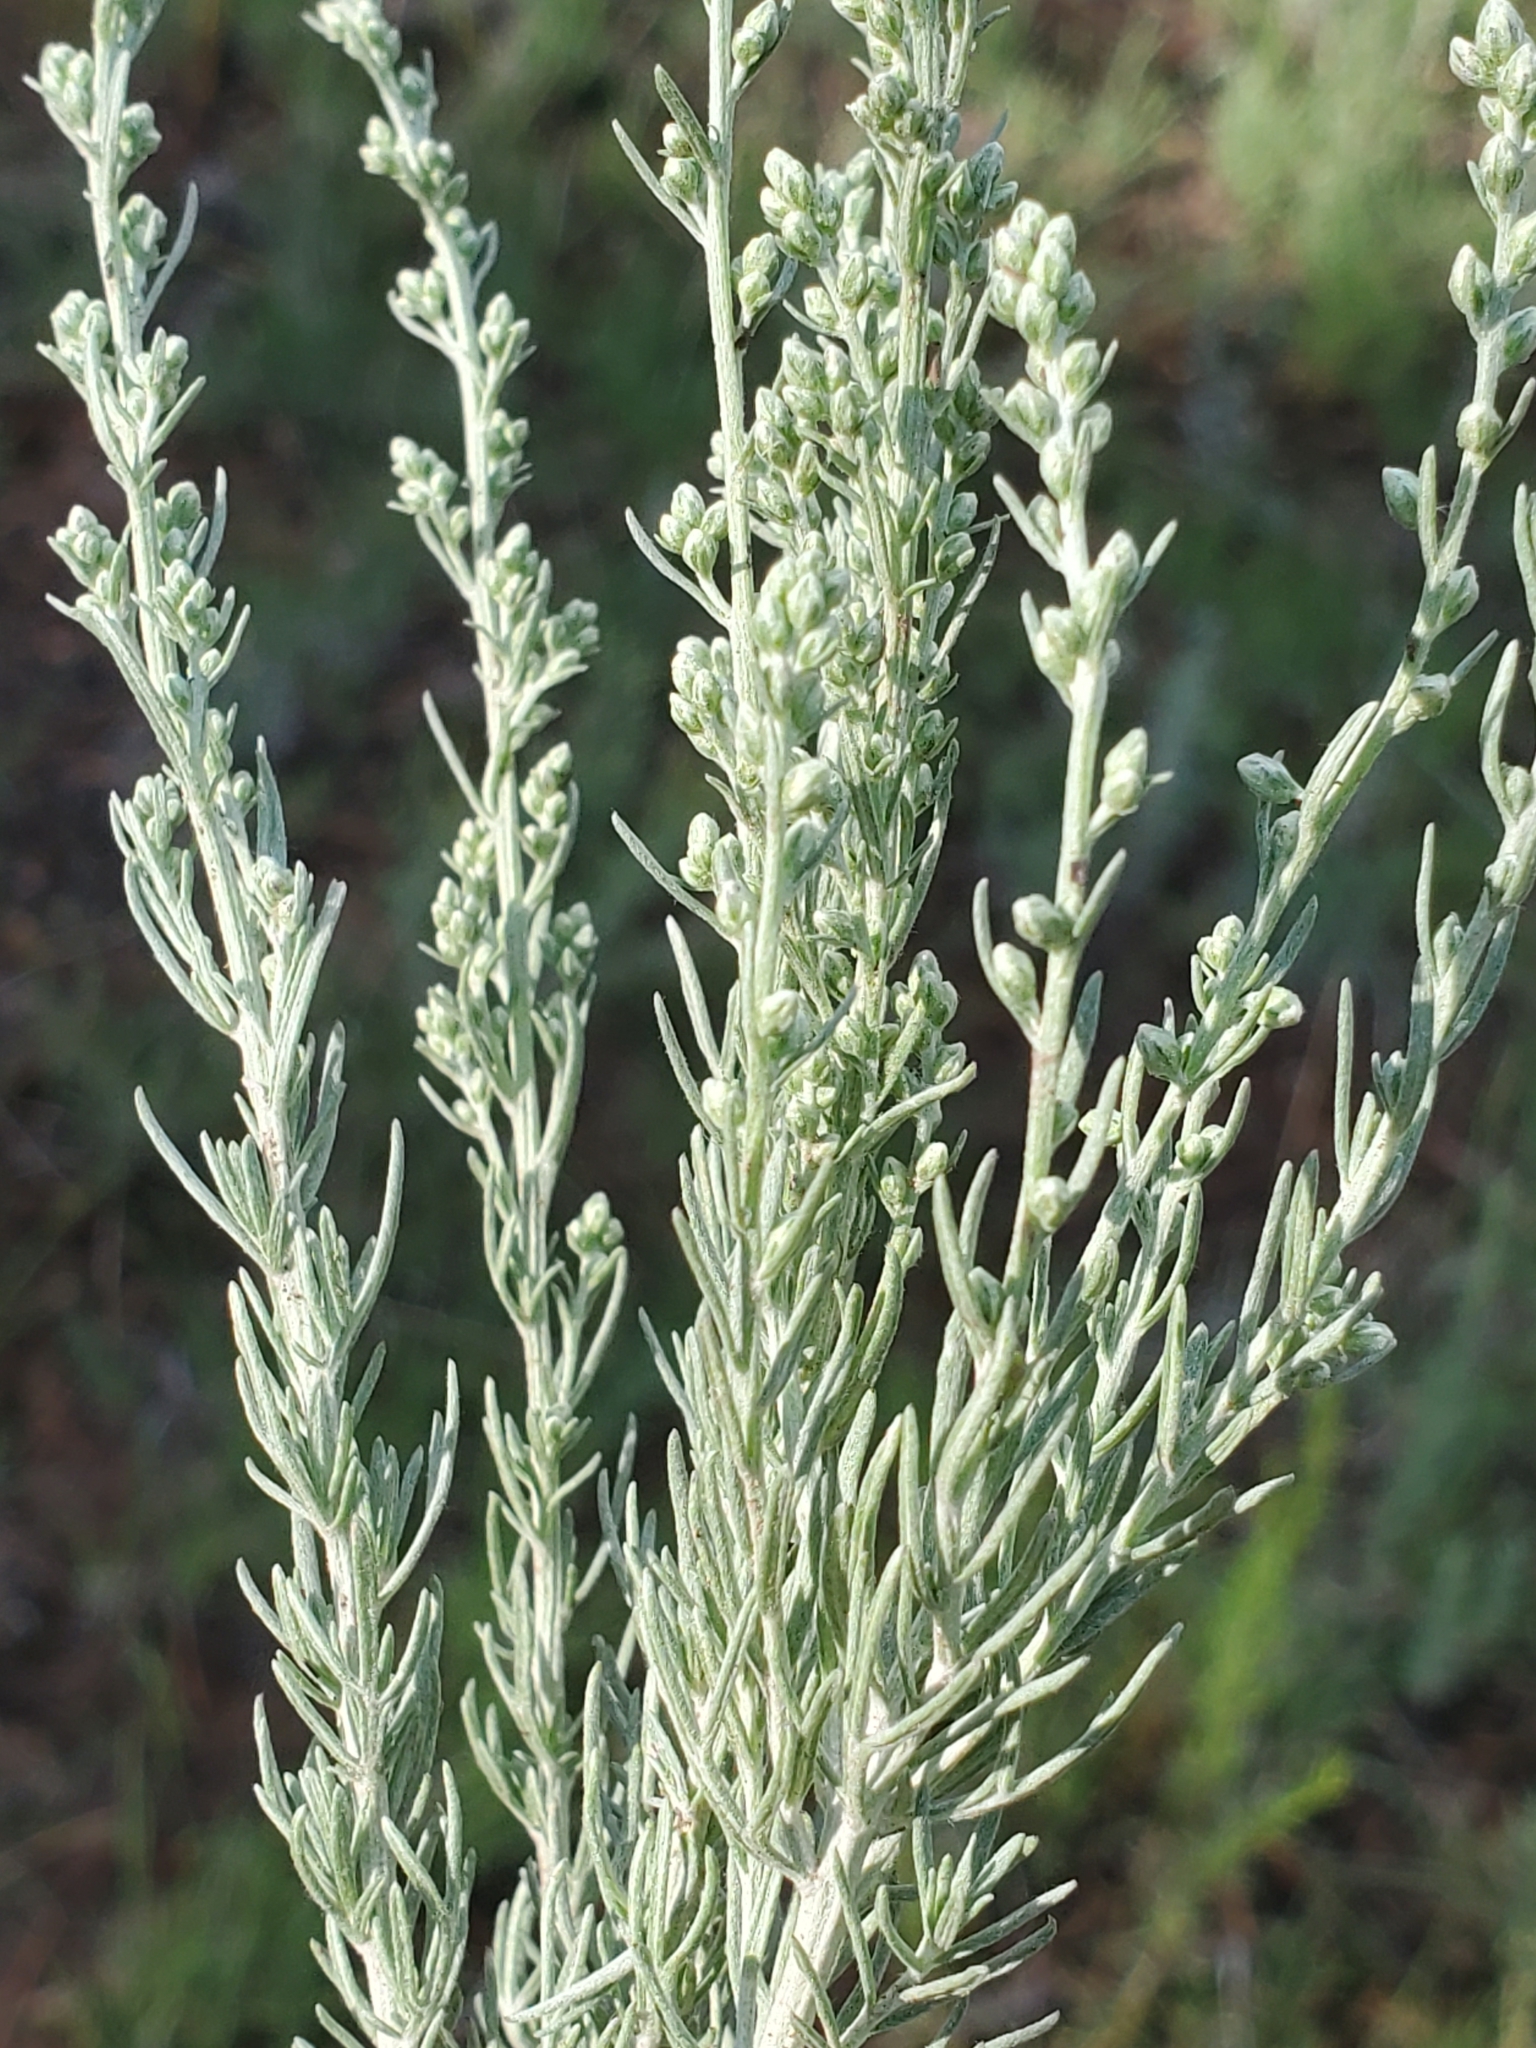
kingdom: Plantae
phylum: Tracheophyta
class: Magnoliopsida
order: Asterales
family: Asteraceae
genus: Artemisia
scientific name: Artemisia carruthii
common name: Carruth wormwood
